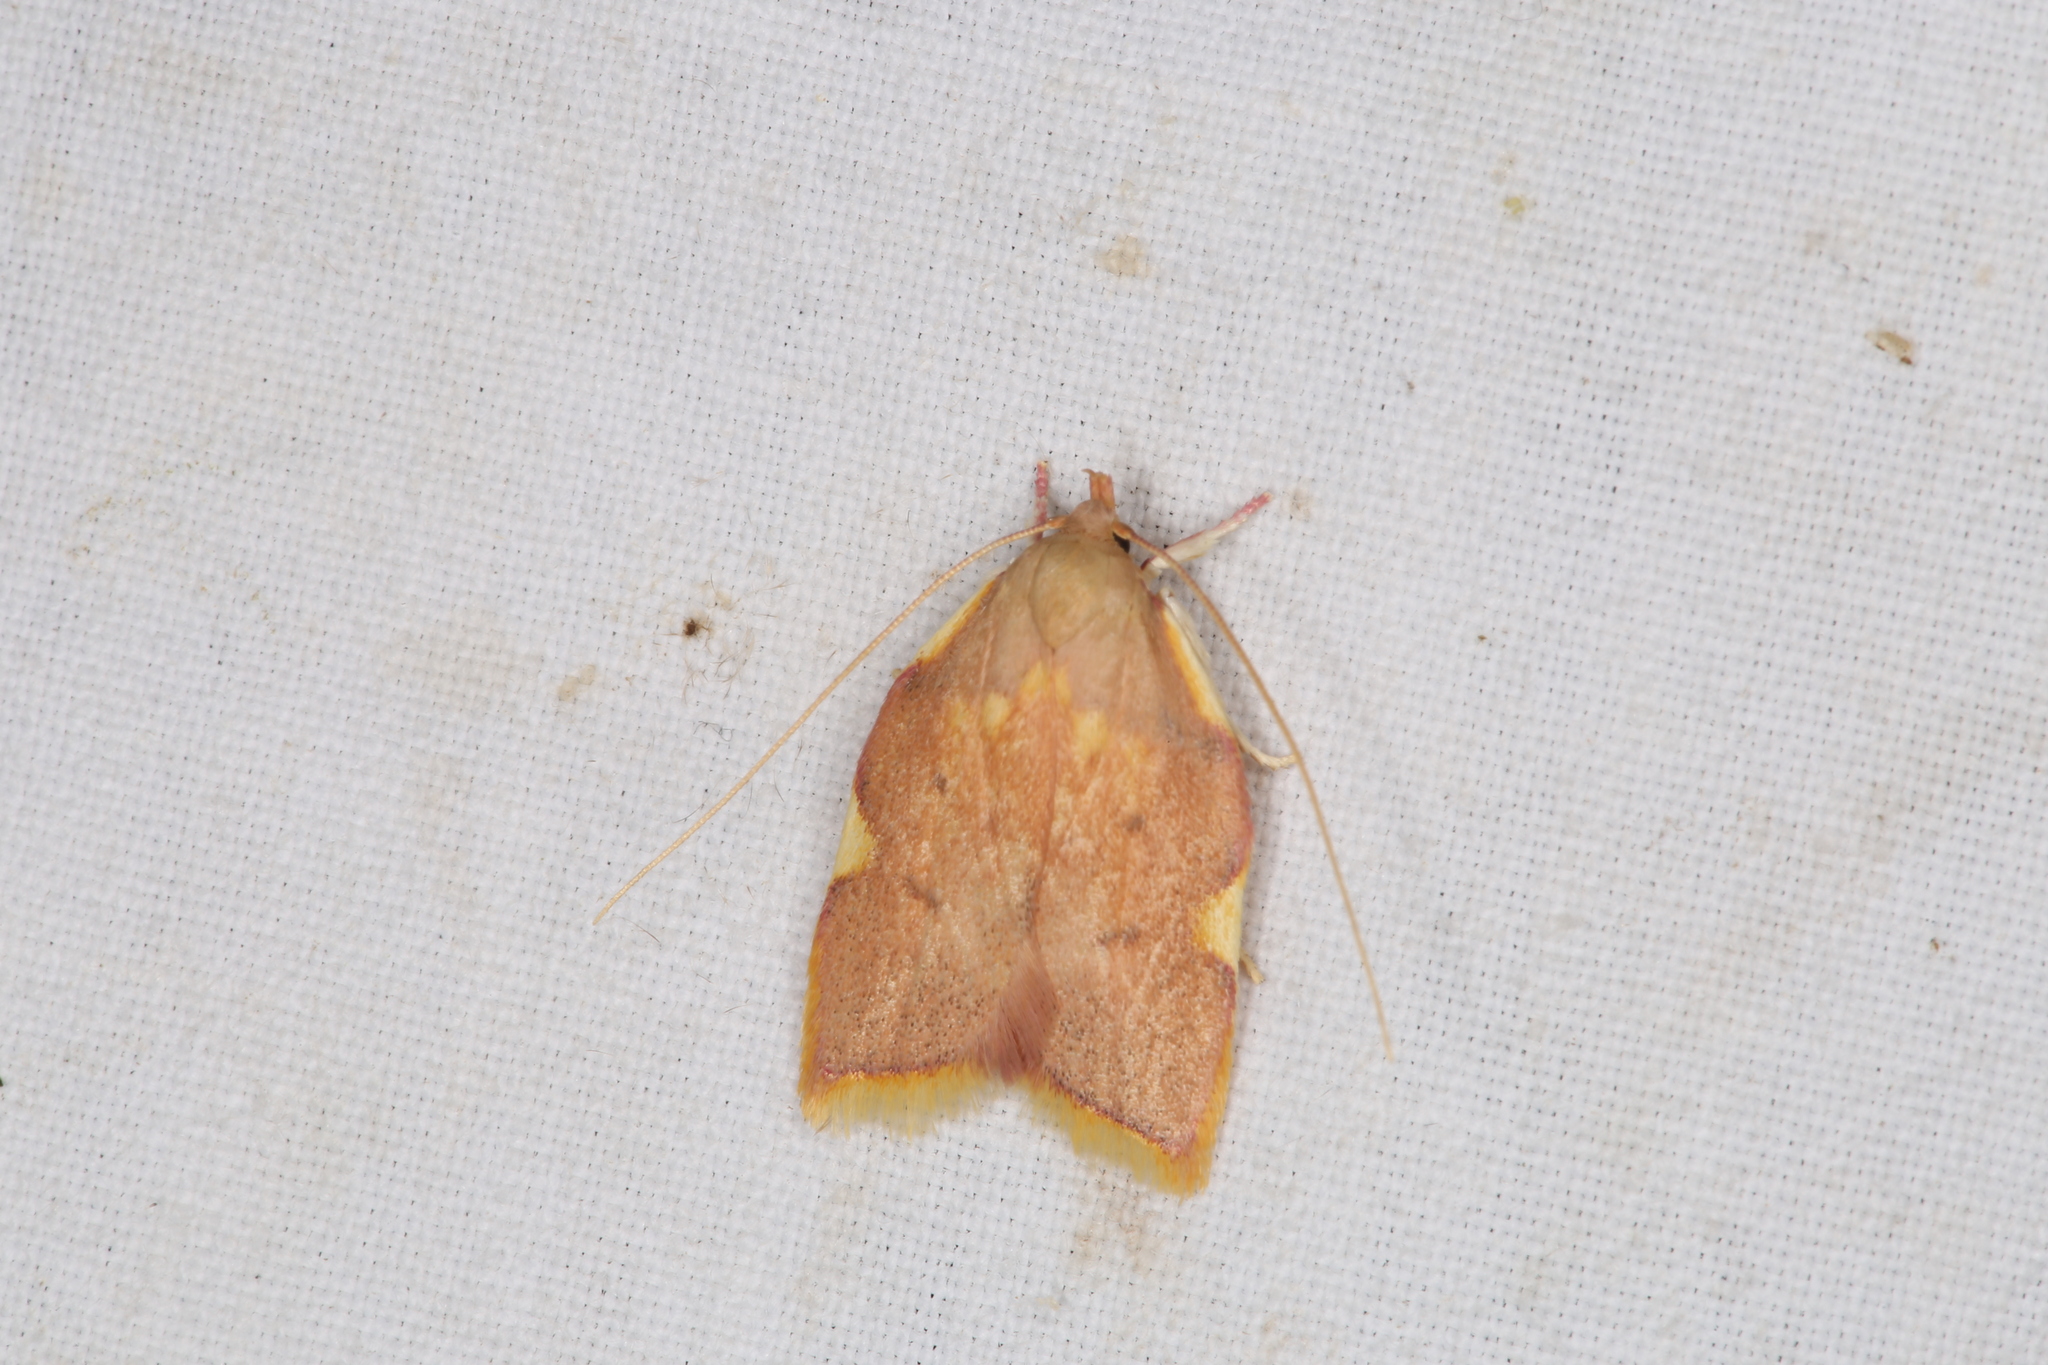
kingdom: Animalia
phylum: Arthropoda
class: Insecta
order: Lepidoptera
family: Peleopodidae
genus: Carcina
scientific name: Carcina quercana
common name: Moth
